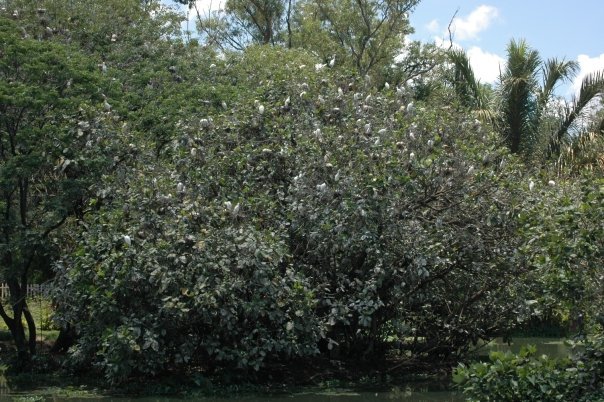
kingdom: Animalia
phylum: Chordata
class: Aves
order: Pelecaniformes
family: Ardeidae
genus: Bubulcus
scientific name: Bubulcus ibis
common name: Cattle egret
